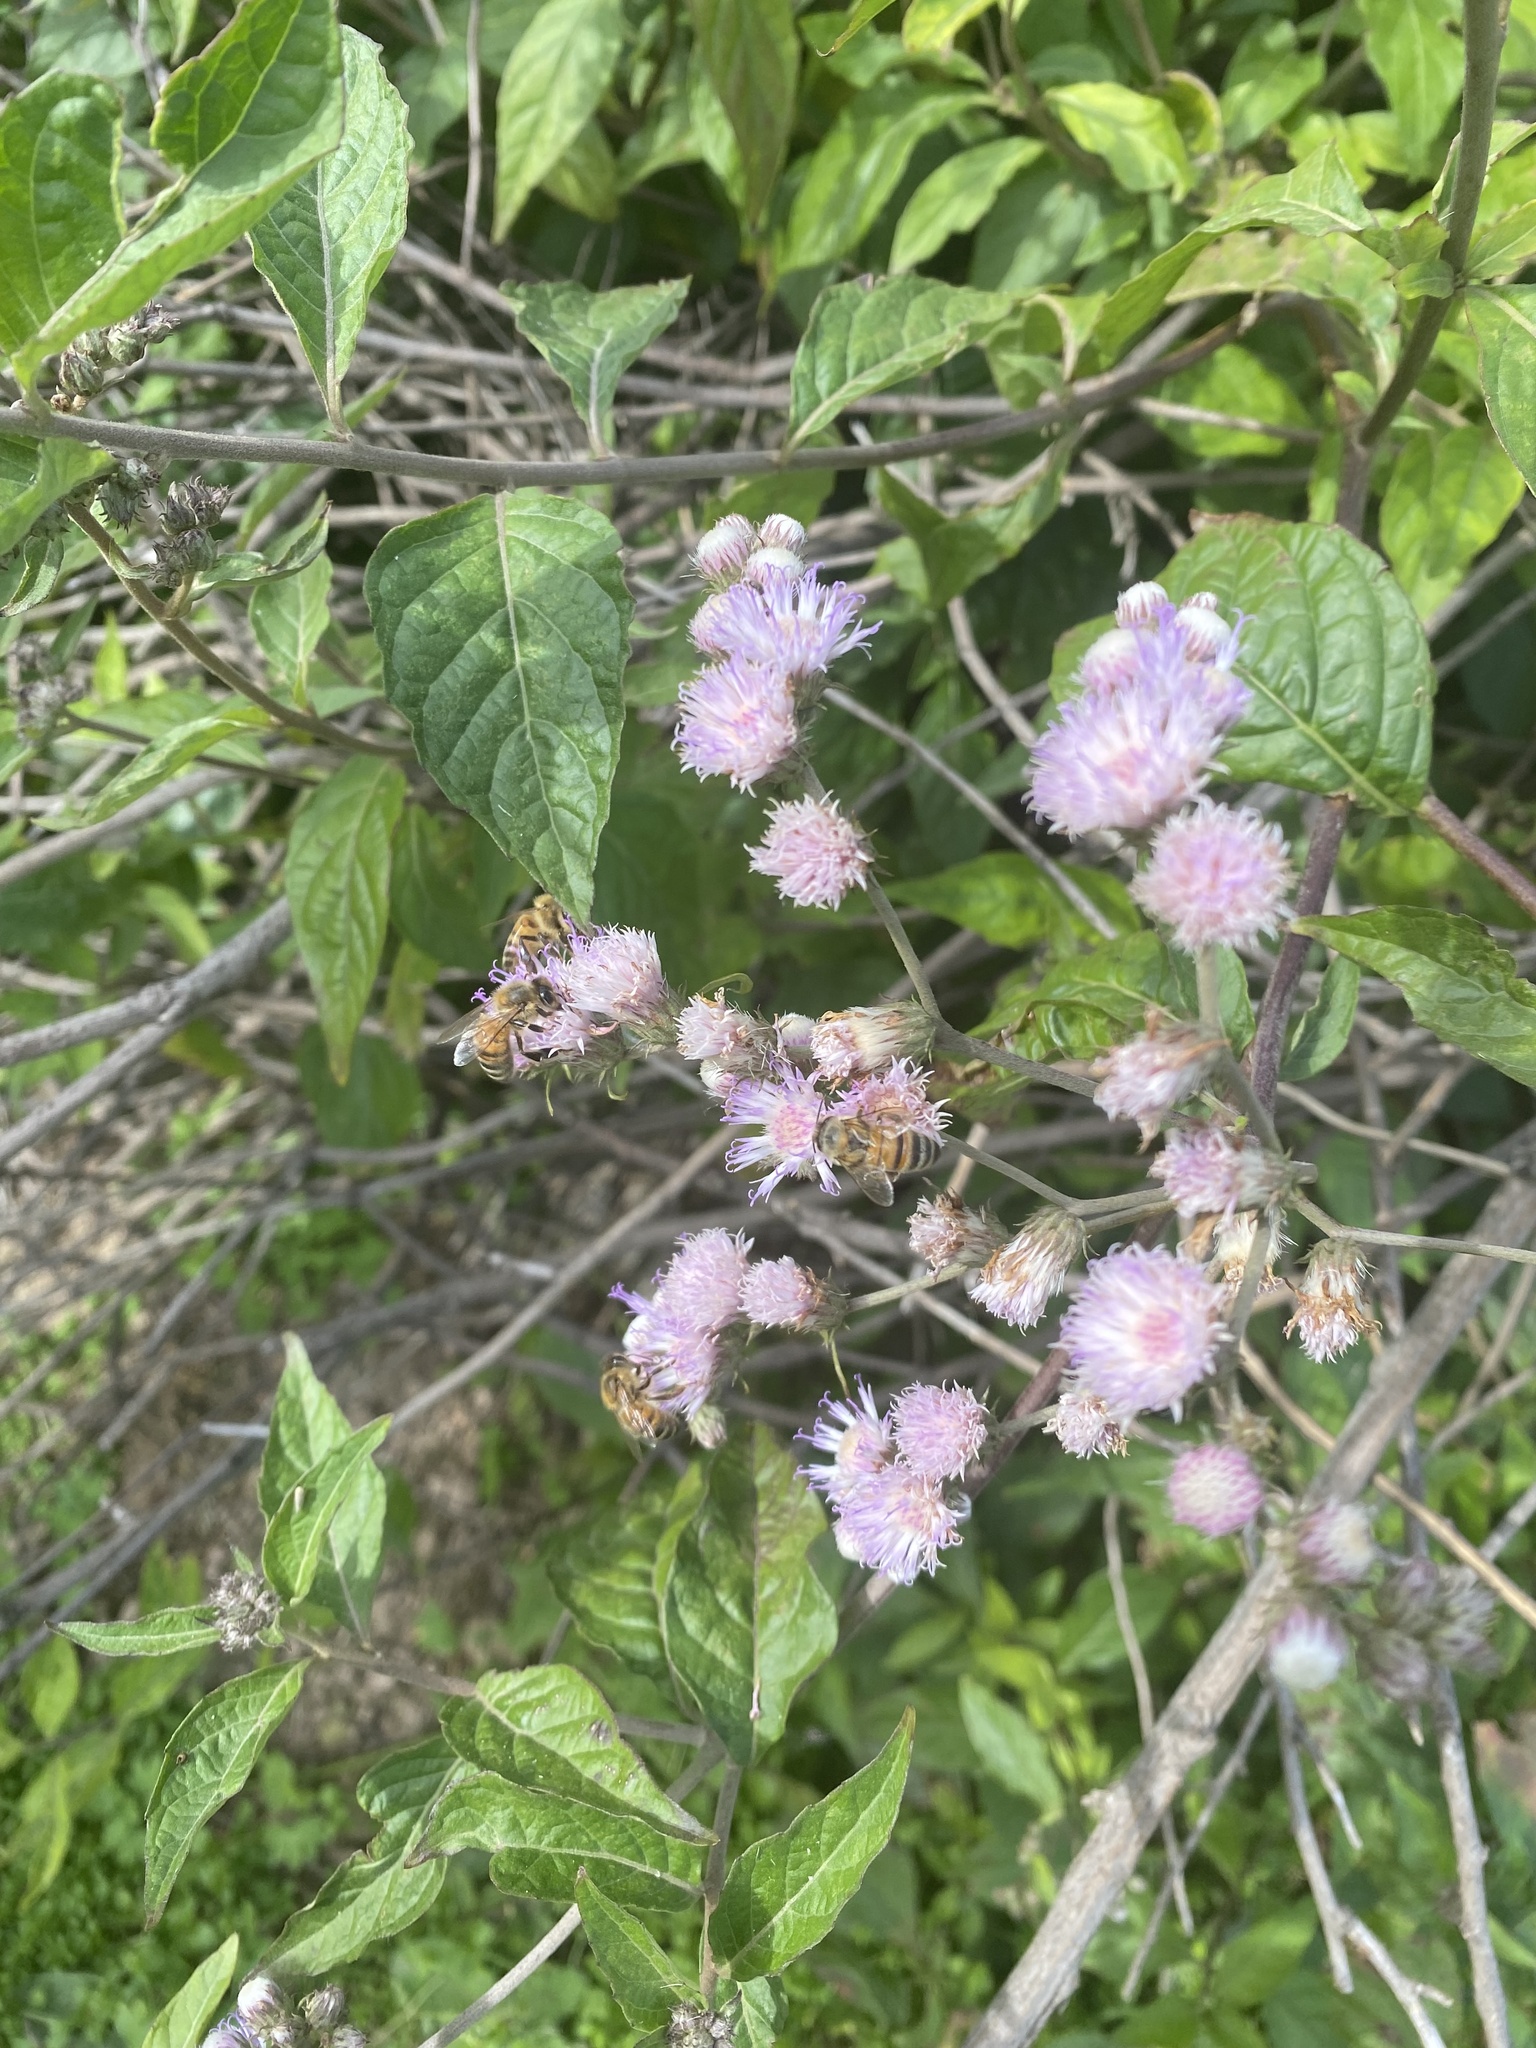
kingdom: Plantae
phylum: Tracheophyta
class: Magnoliopsida
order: Asterales
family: Asteraceae
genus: Cyrtocymura
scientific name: Cyrtocymura scorpioides
